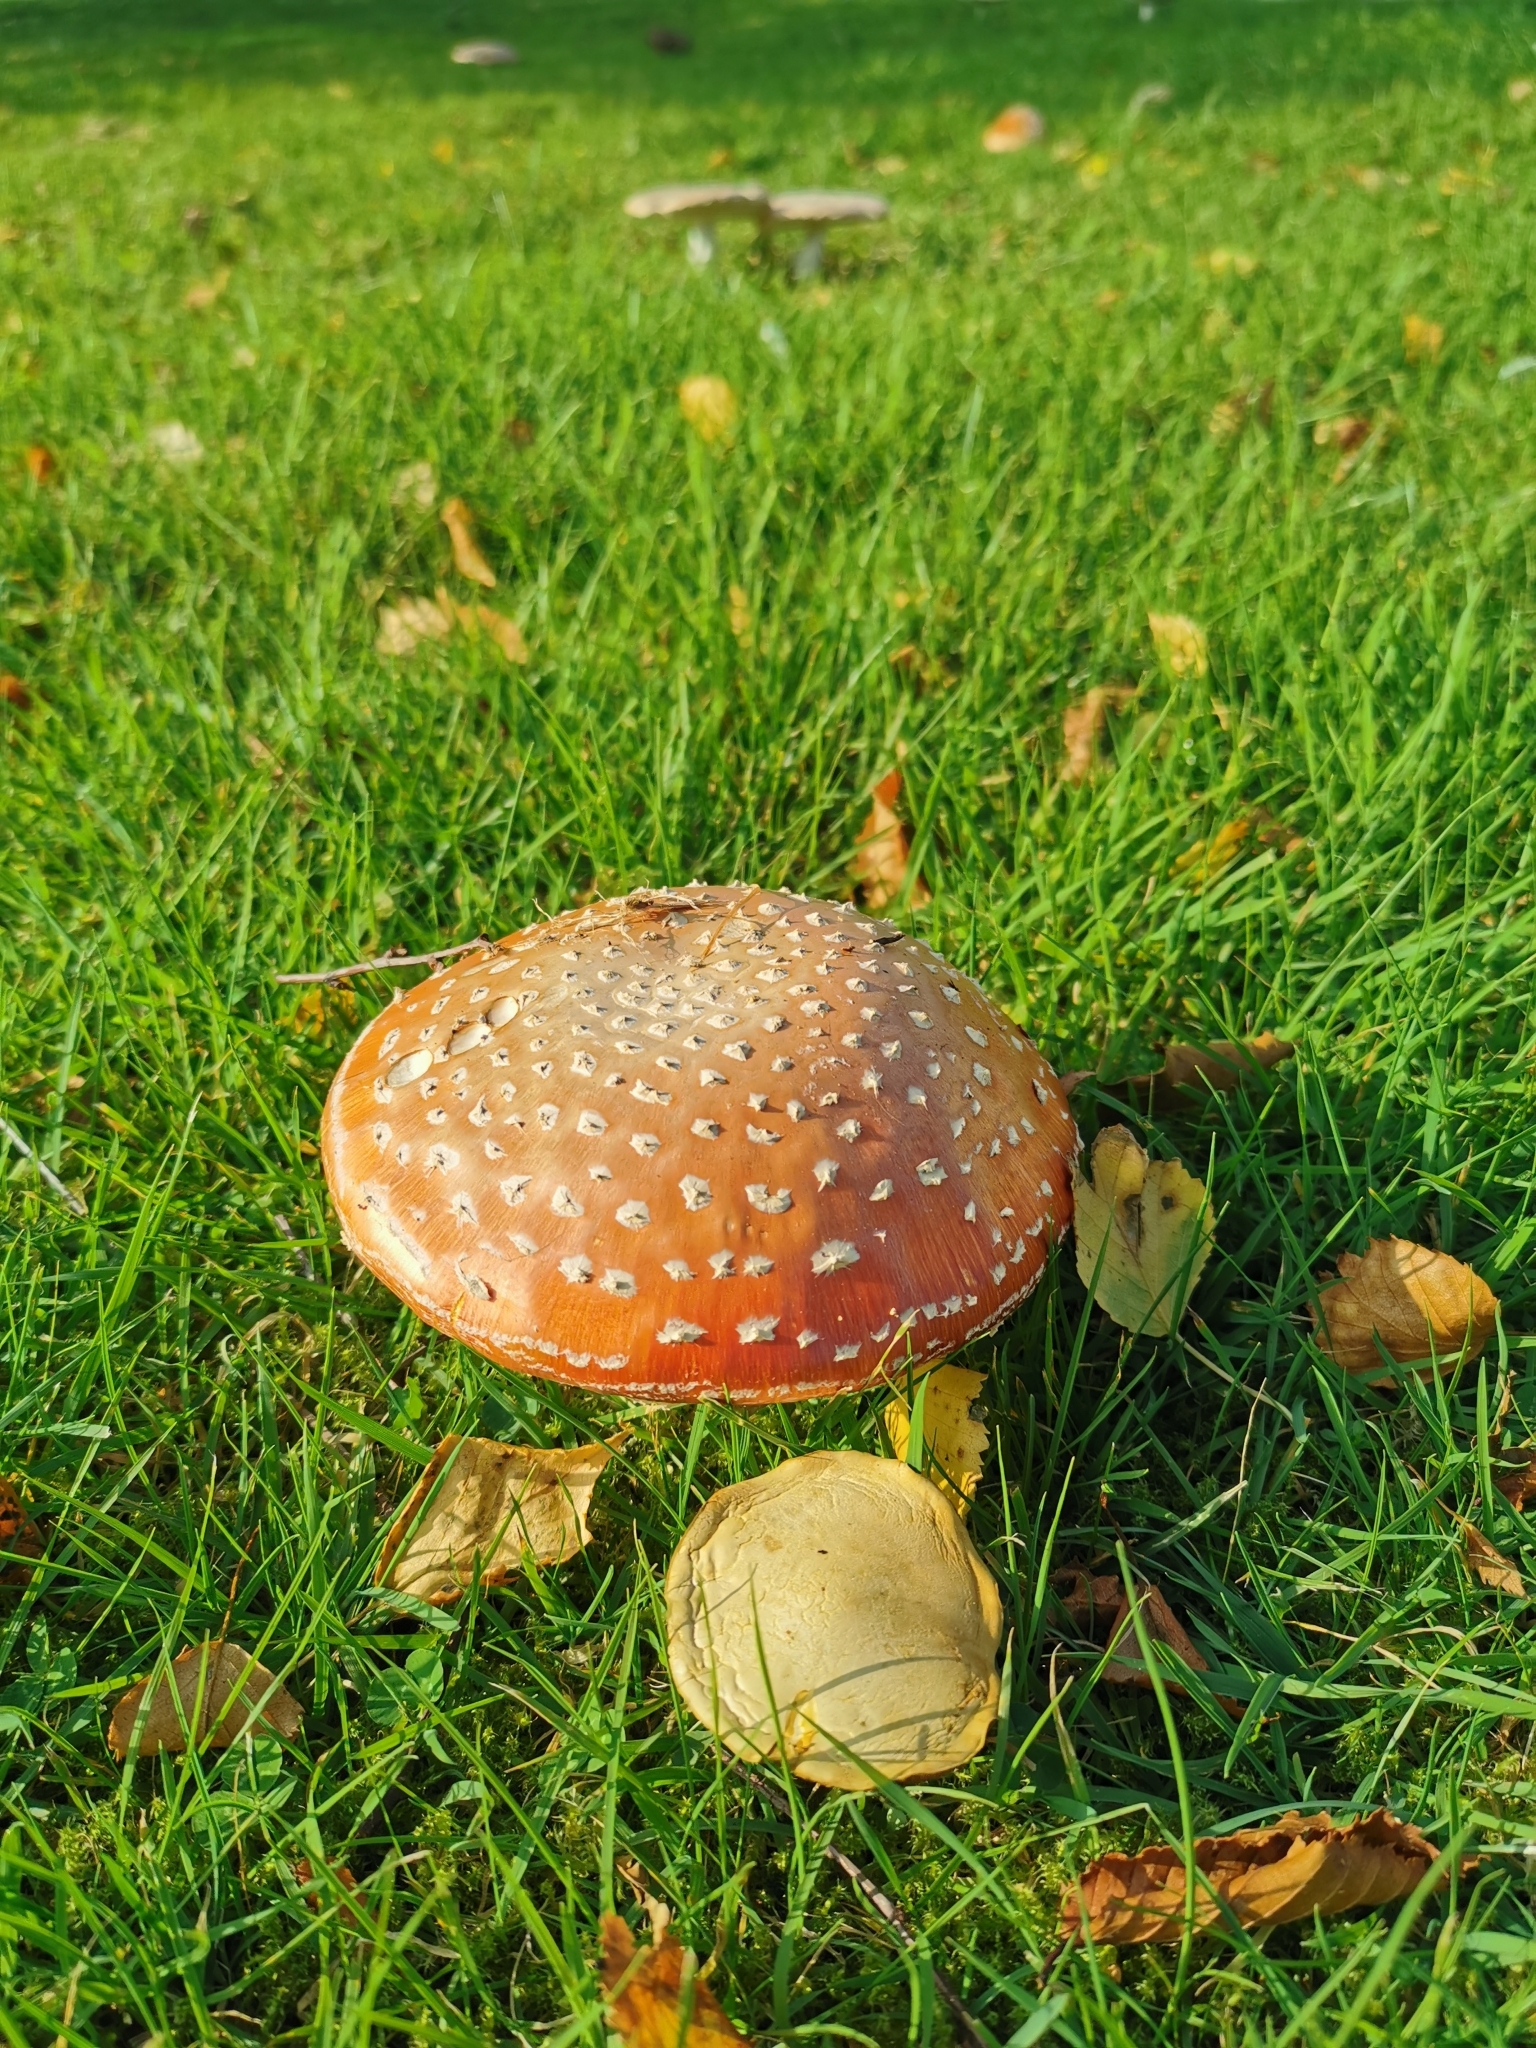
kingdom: Fungi
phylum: Basidiomycota
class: Agaricomycetes
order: Agaricales
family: Amanitaceae
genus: Amanita
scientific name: Amanita muscaria
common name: Fly agaric
